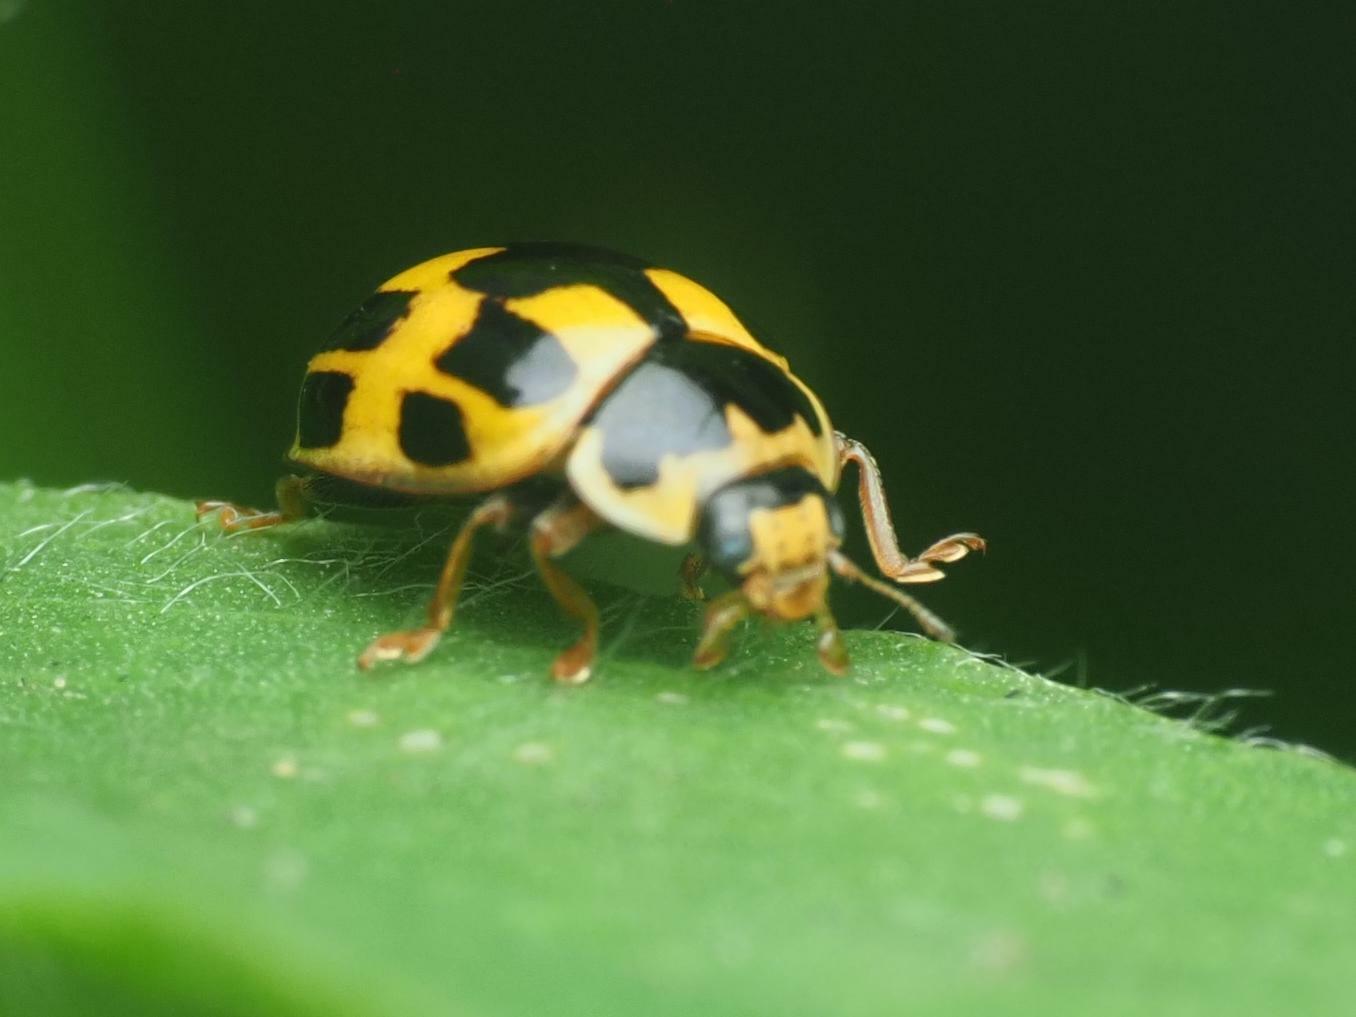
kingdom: Animalia
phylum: Arthropoda
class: Insecta
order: Coleoptera
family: Coccinellidae
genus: Propylaea
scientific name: Propylaea quatuordecimpunctata
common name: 14-spotted ladybird beetle
